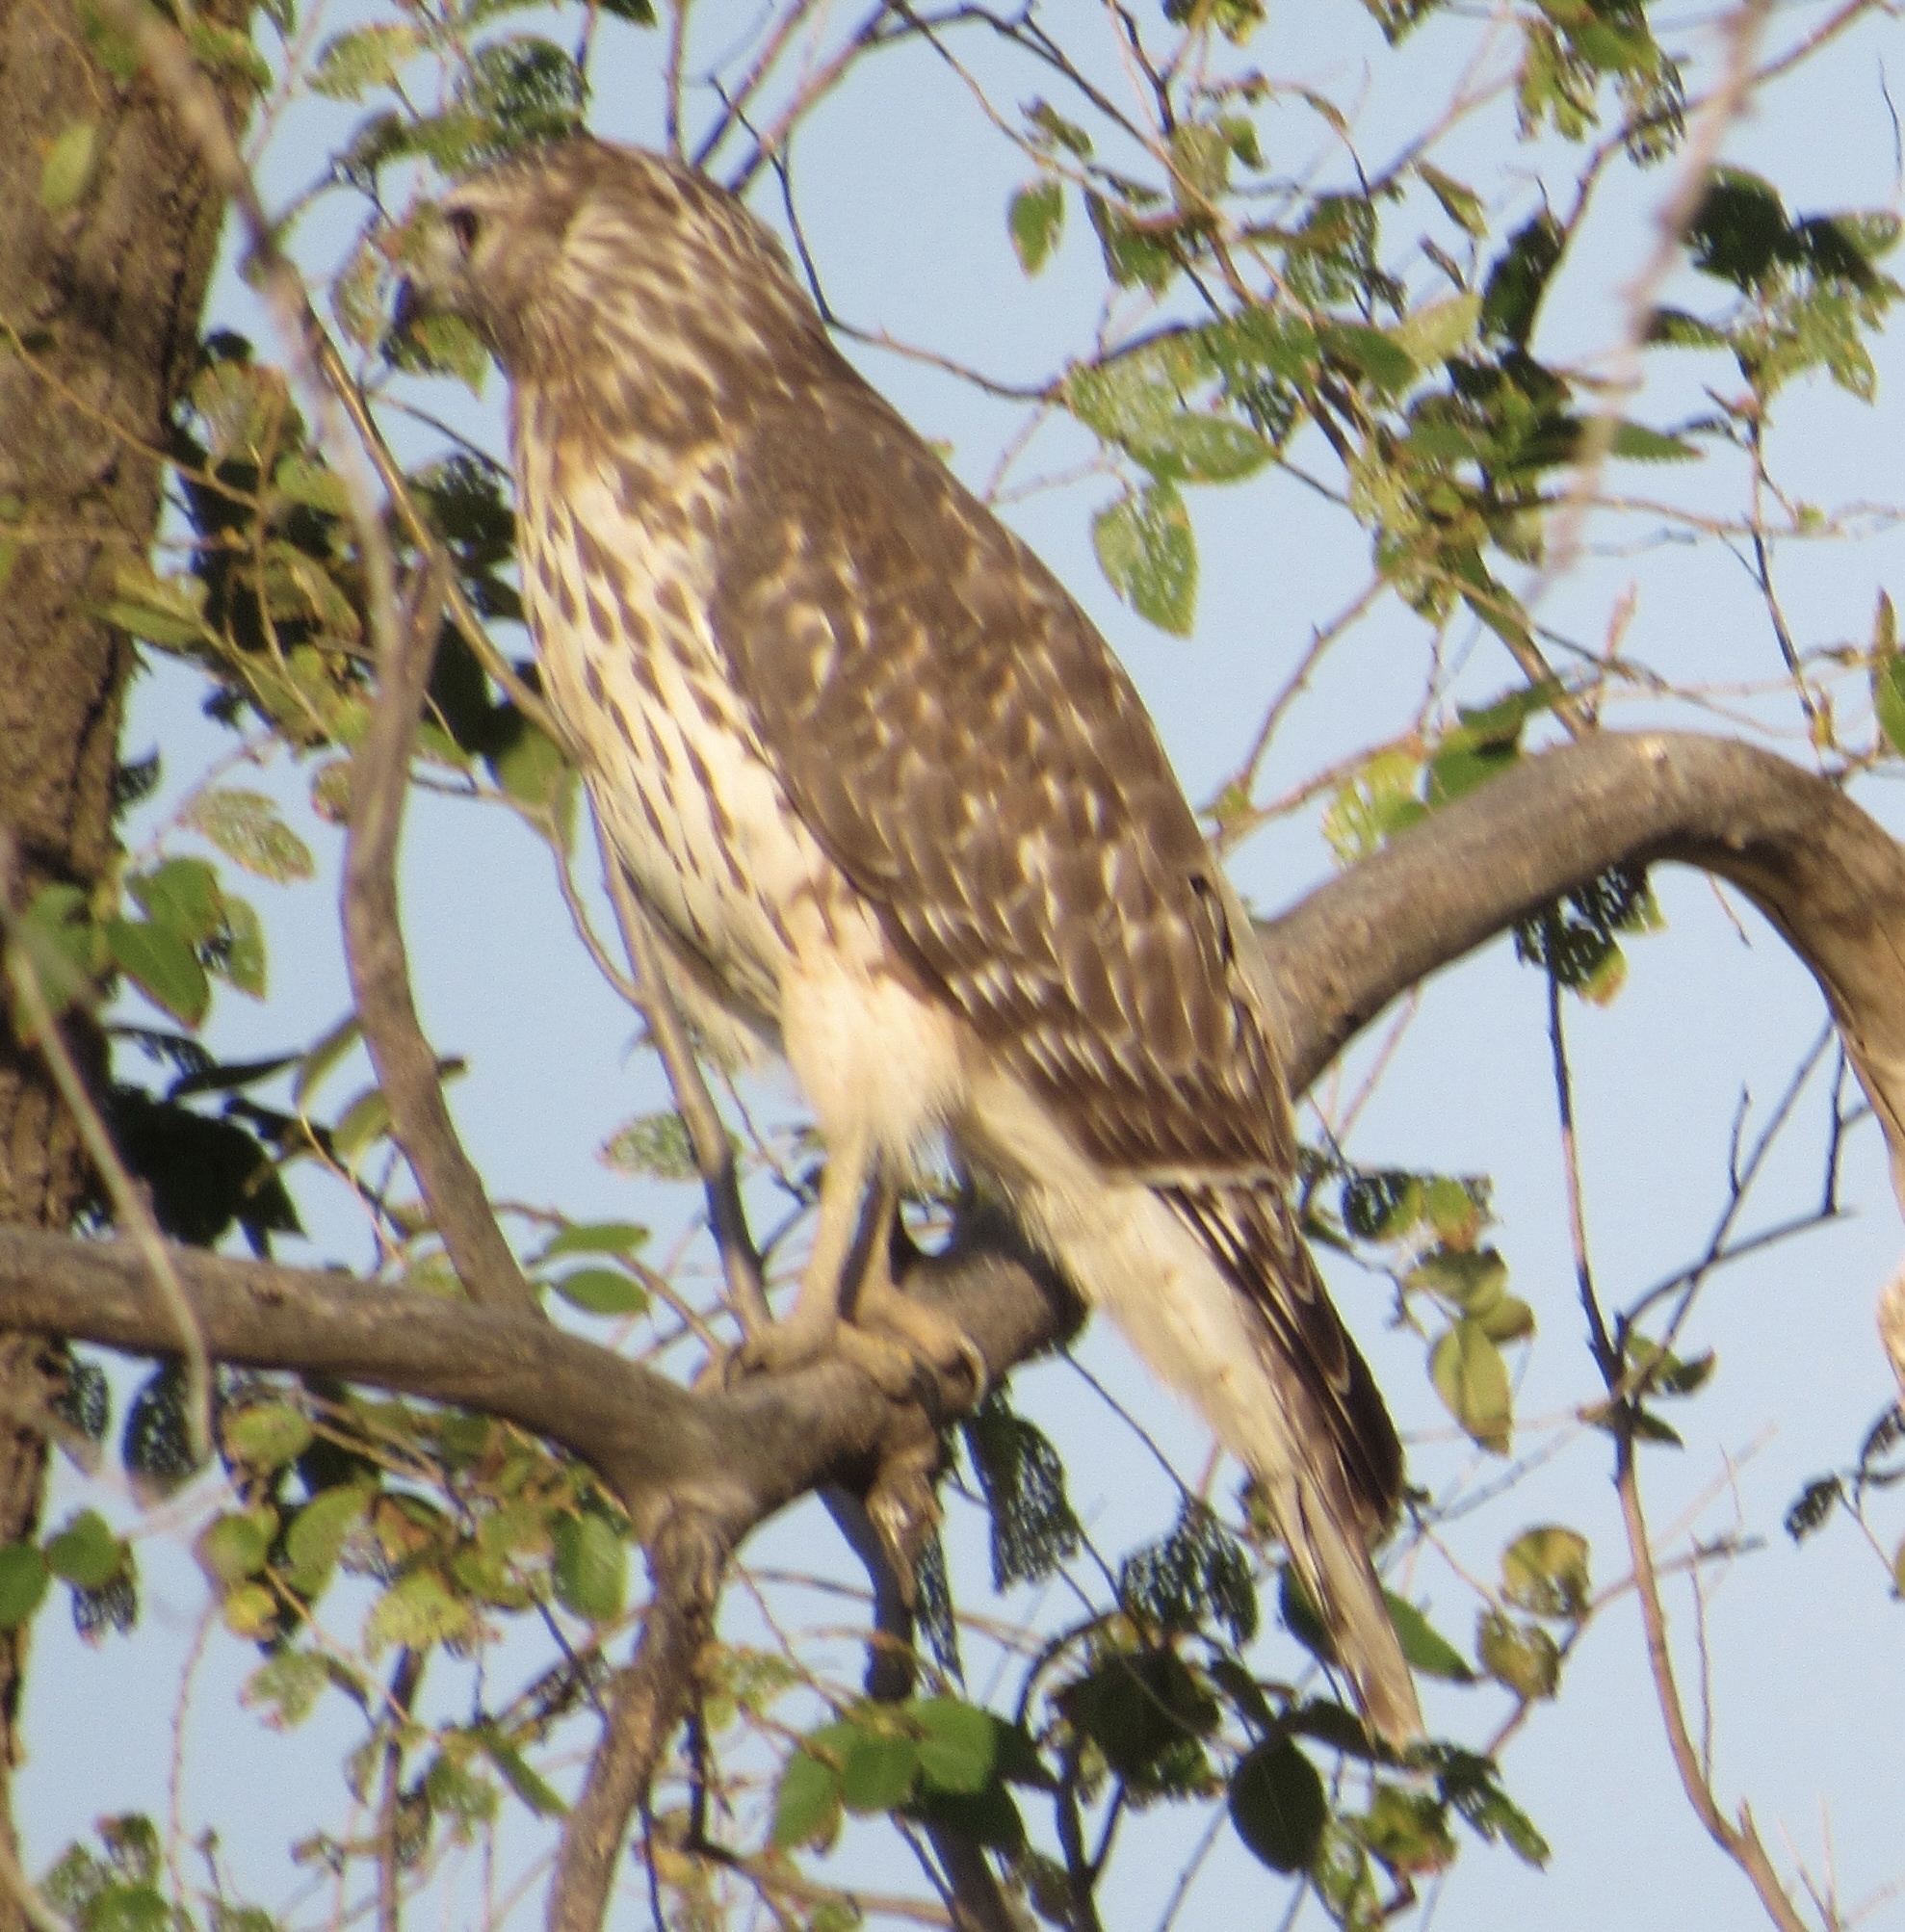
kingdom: Animalia
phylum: Chordata
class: Aves
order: Accipitriformes
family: Accipitridae
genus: Buteo
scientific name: Buteo lineatus
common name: Red-shouldered hawk
